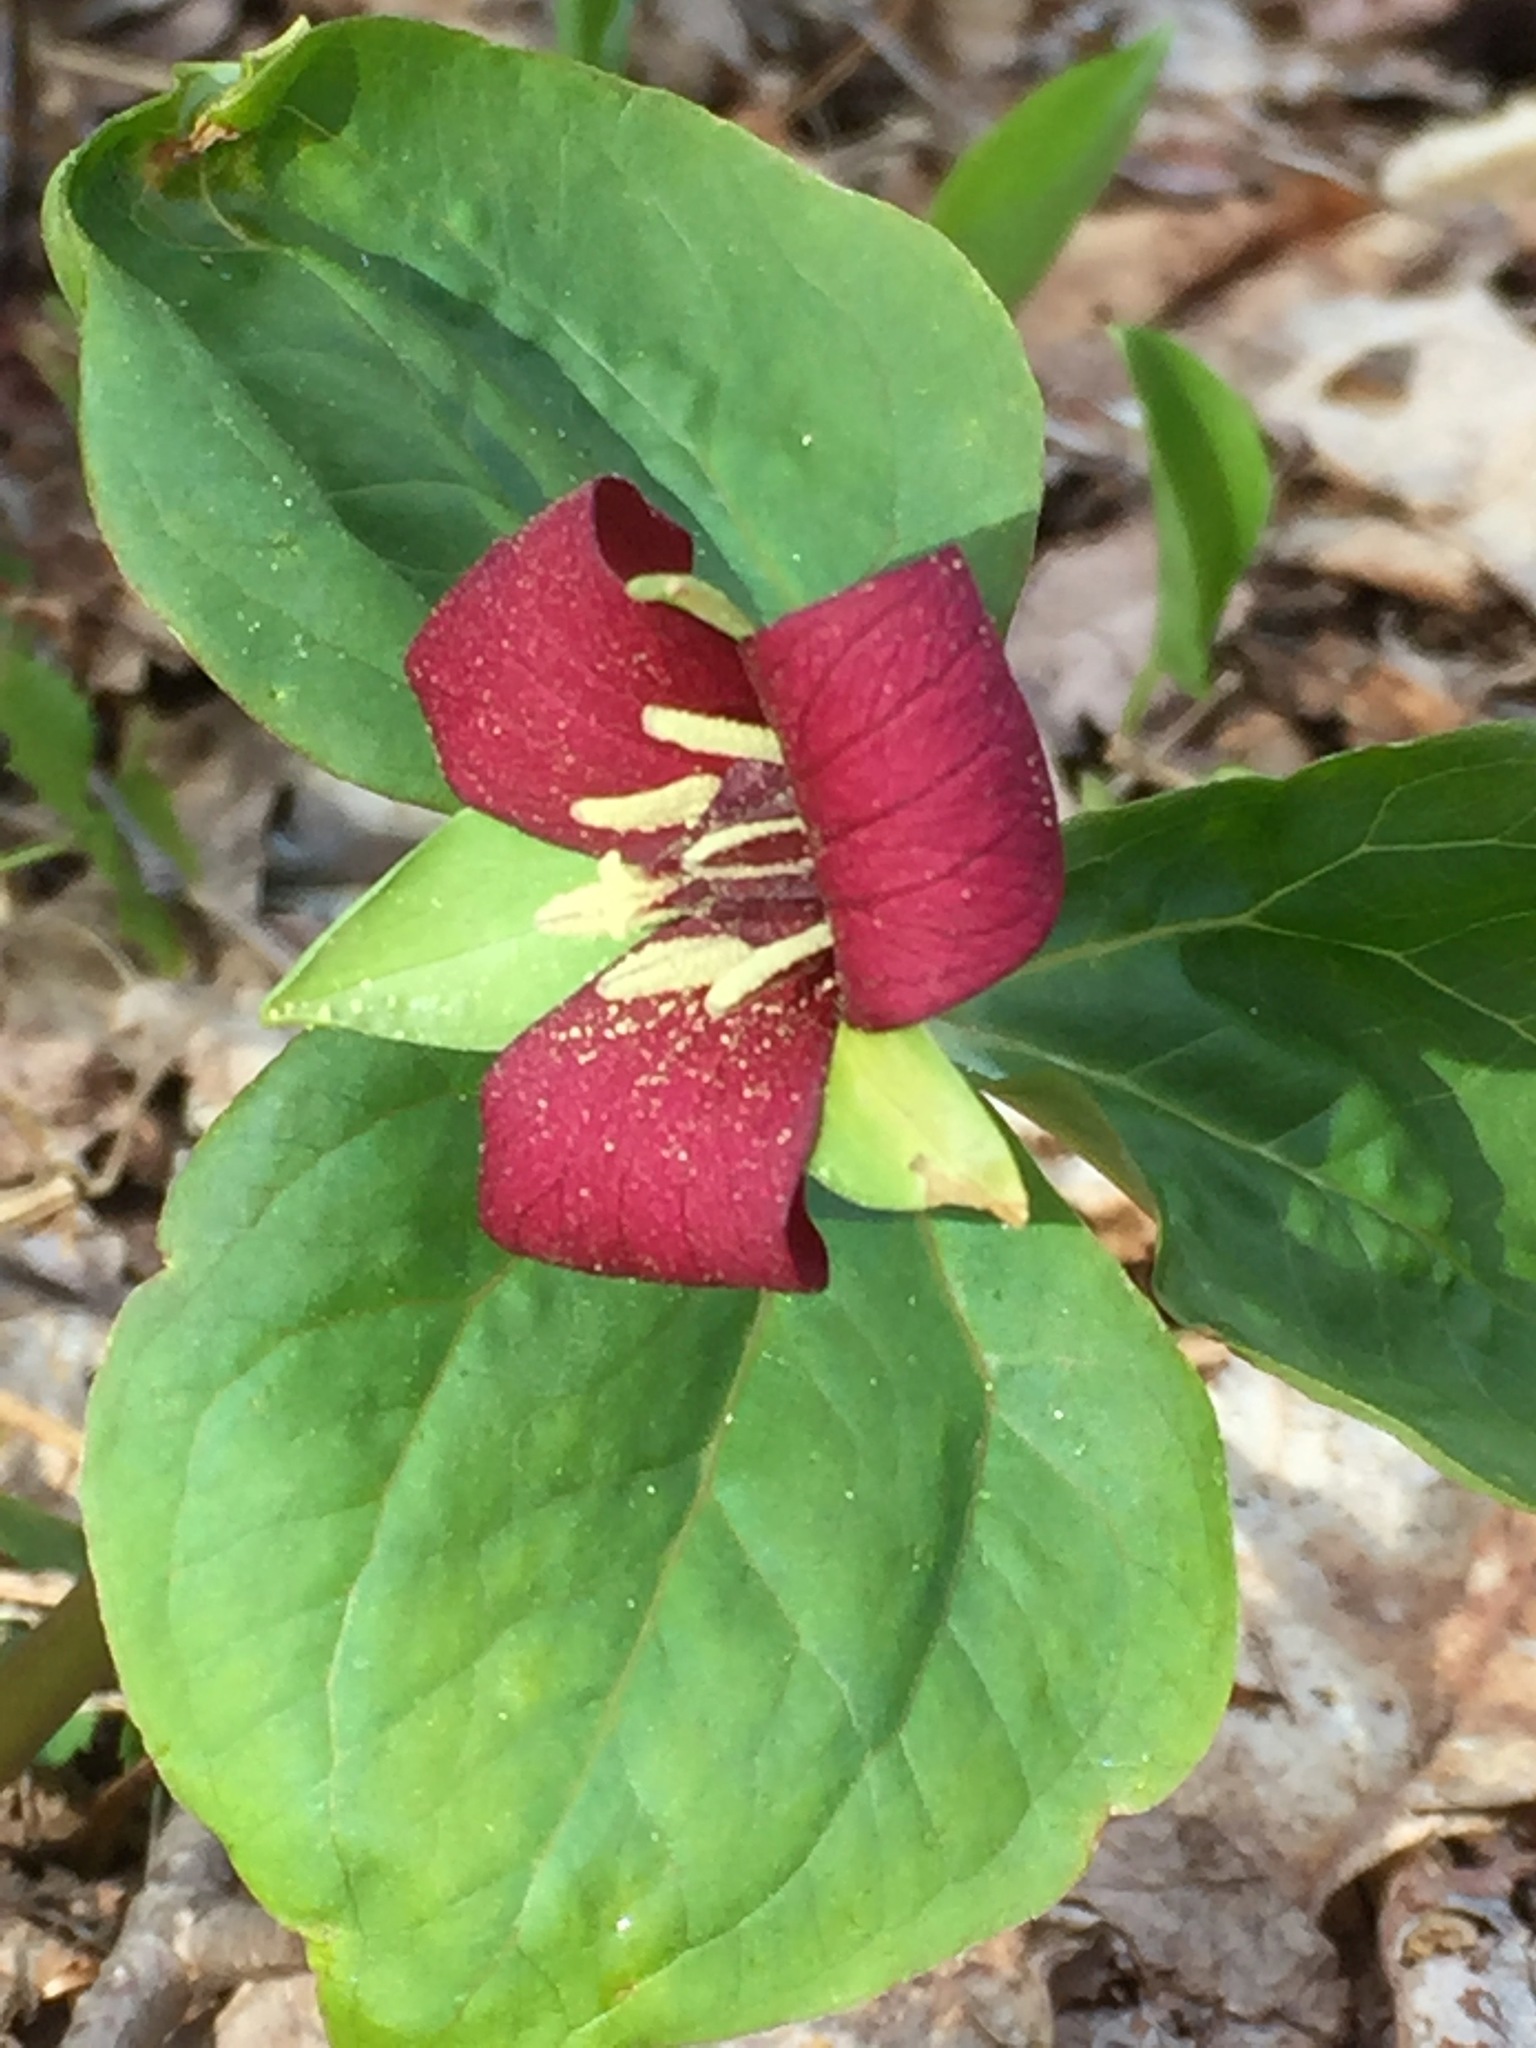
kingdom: Plantae
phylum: Tracheophyta
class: Liliopsida
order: Liliales
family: Melanthiaceae
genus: Trillium
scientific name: Trillium erectum
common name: Purple trillium
